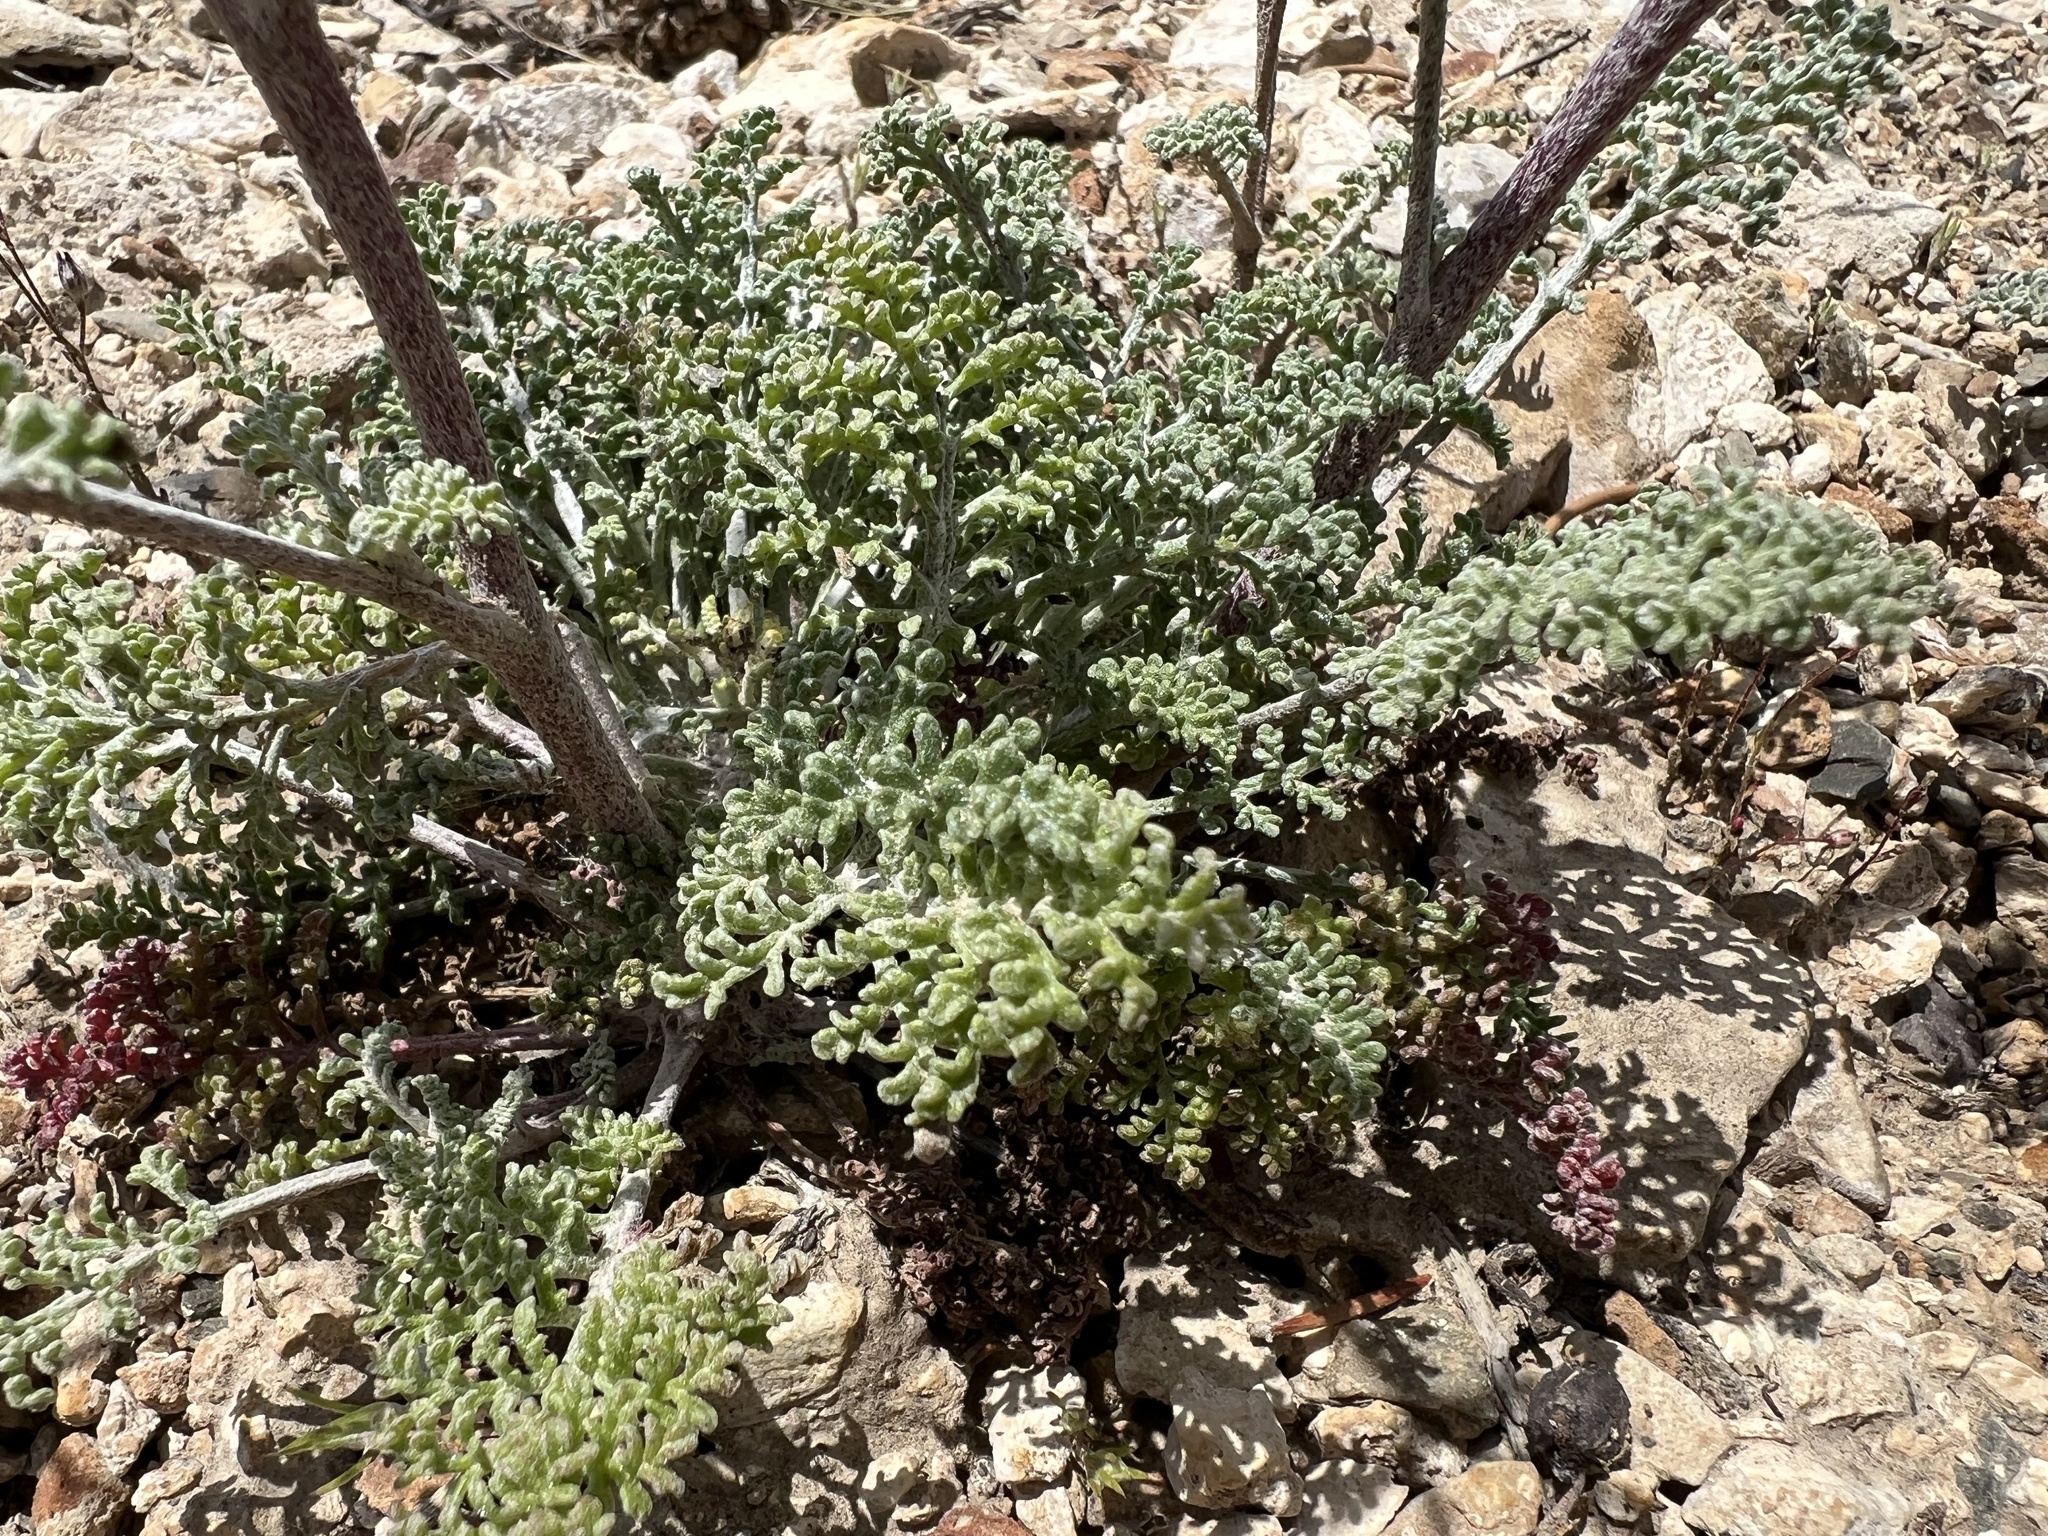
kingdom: Plantae
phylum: Tracheophyta
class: Magnoliopsida
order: Asterales
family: Asteraceae
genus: Chaenactis
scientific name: Chaenactis douglasii
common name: Hoary pincushion
